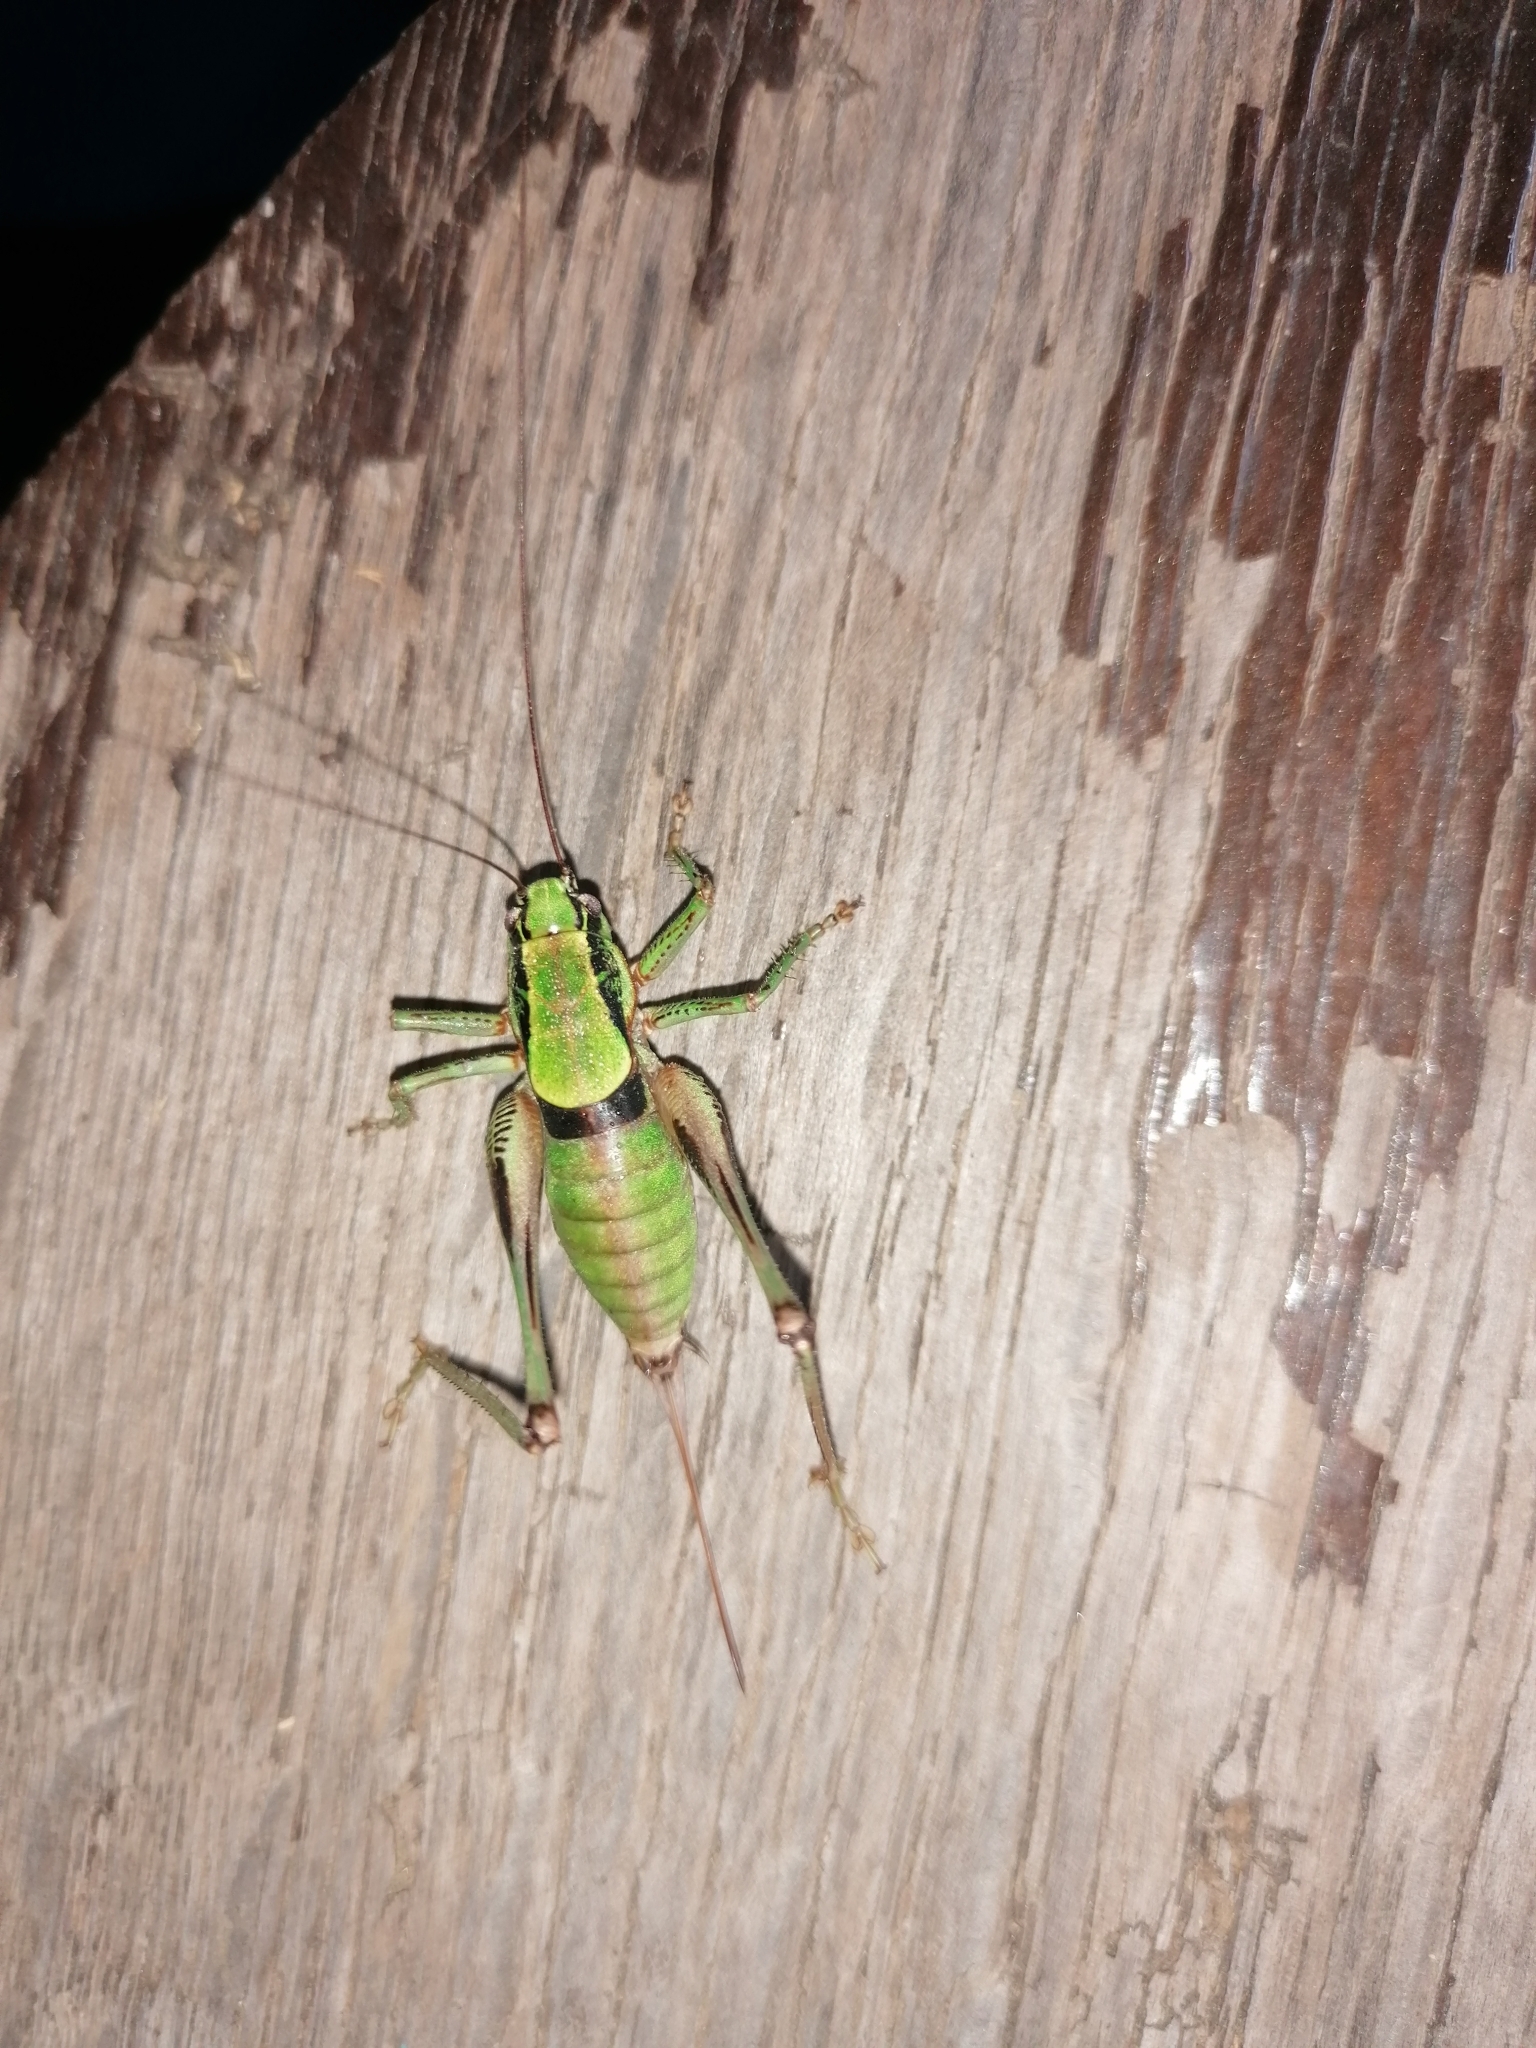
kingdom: Animalia
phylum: Arthropoda
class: Insecta
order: Orthoptera
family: Tettigoniidae
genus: Eupholidoptera
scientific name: Eupholidoptera schmidti
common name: Schmidt's marbled bush-cricket
